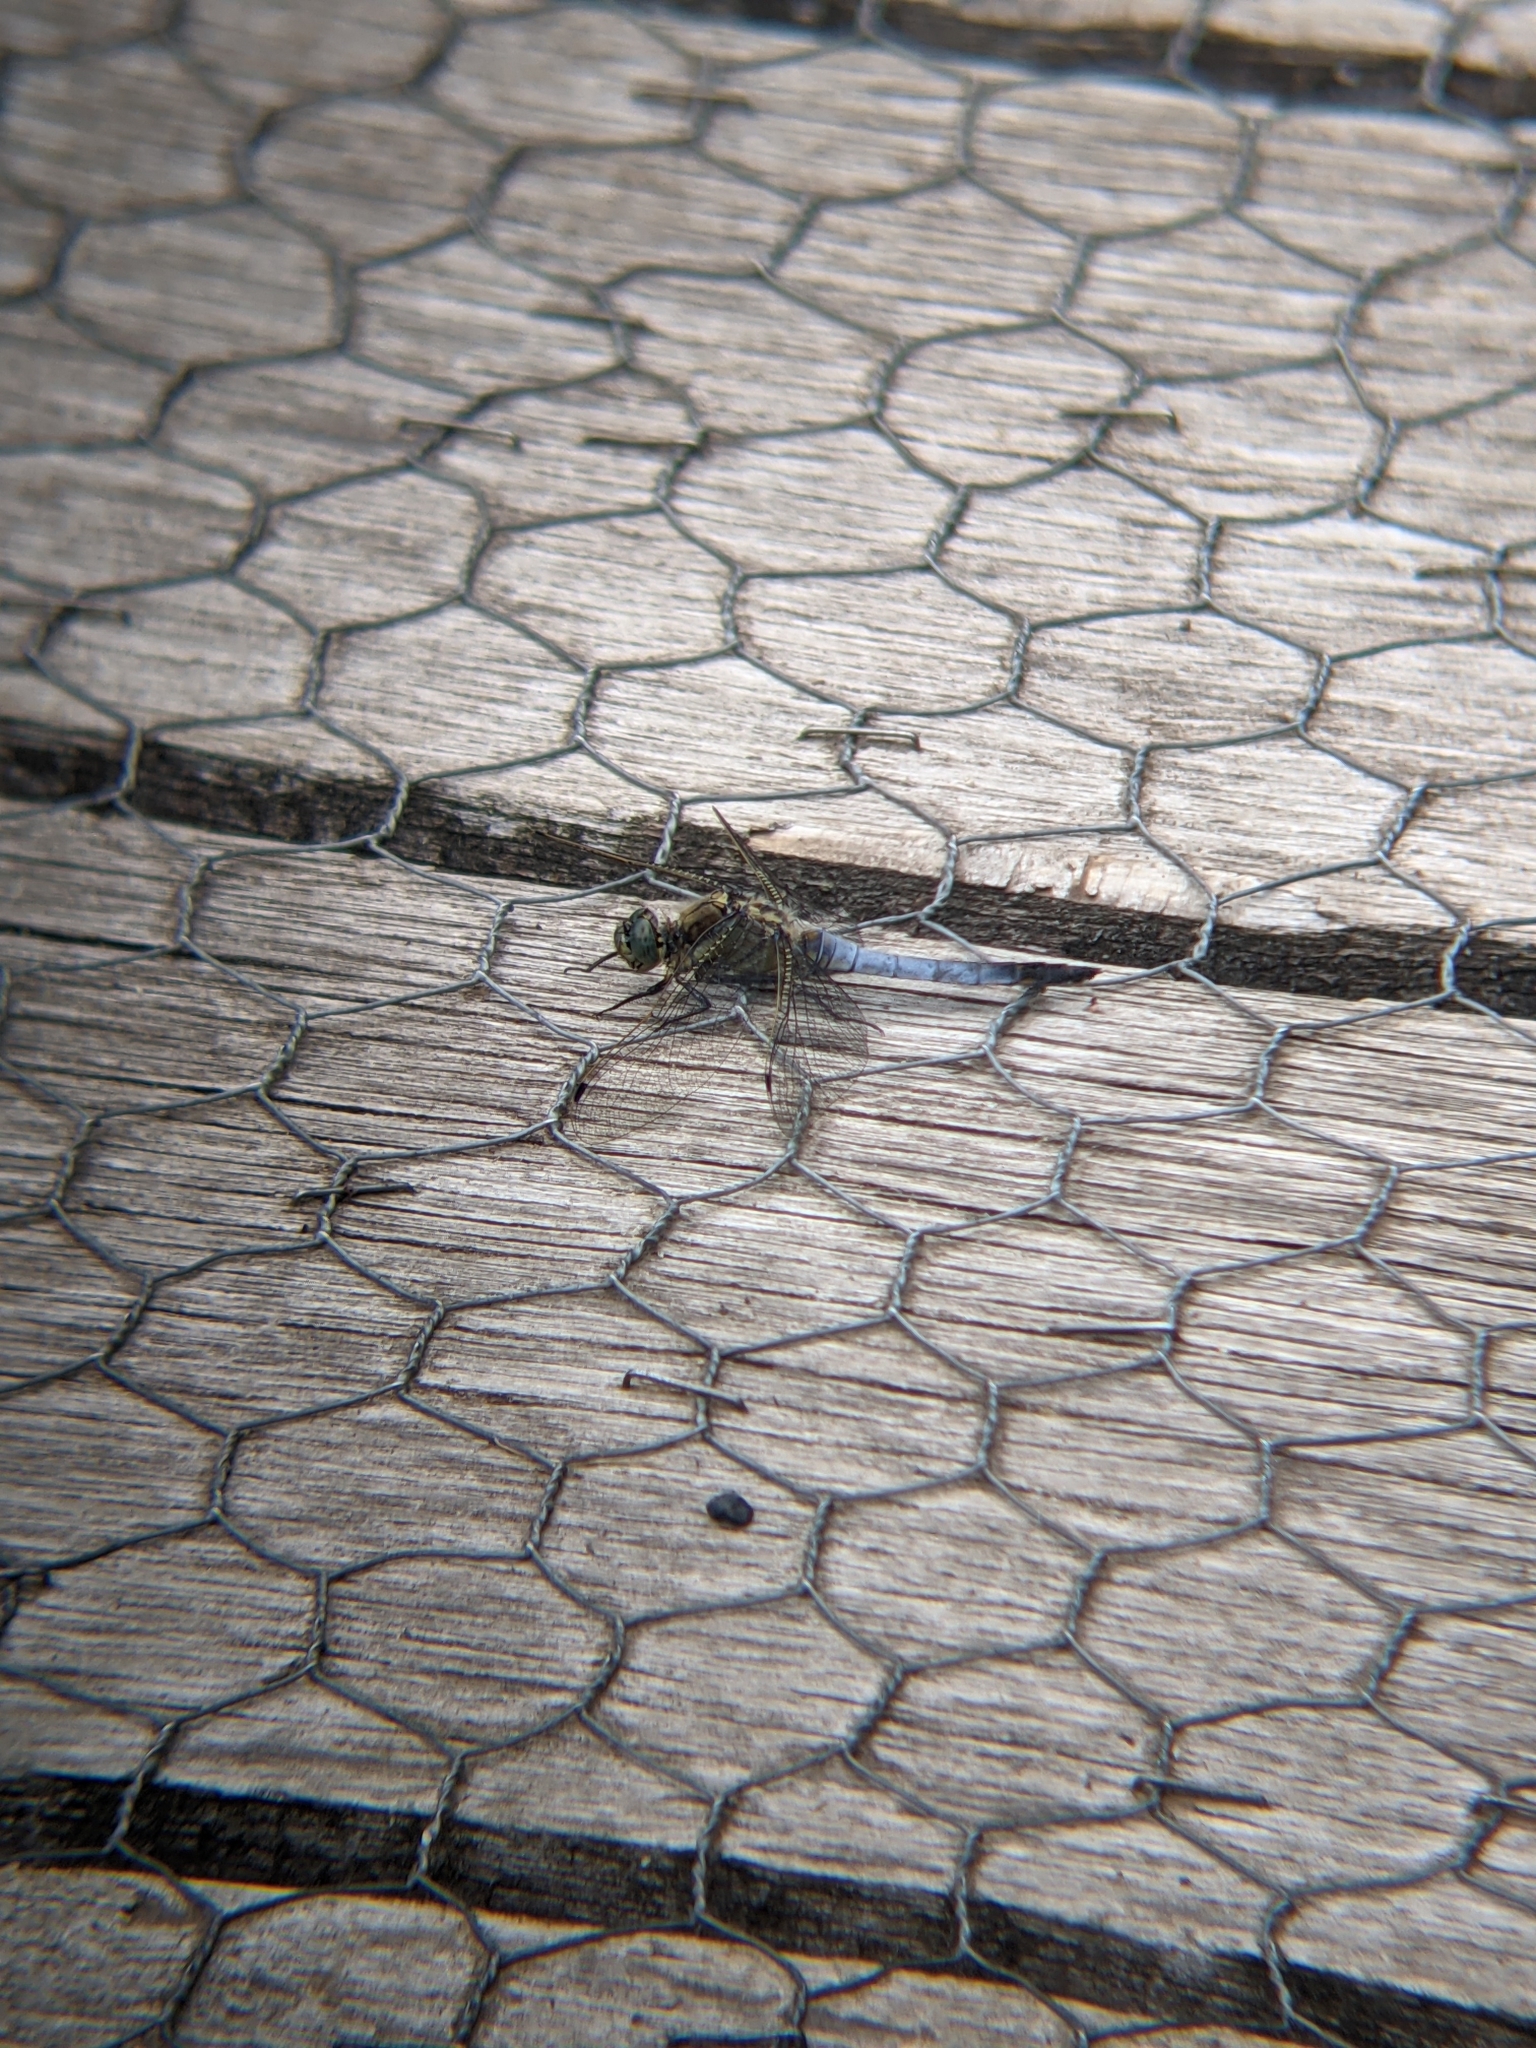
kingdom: Animalia
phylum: Arthropoda
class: Insecta
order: Odonata
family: Libellulidae
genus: Orthetrum
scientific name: Orthetrum cancellatum
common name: Black-tailed skimmer
